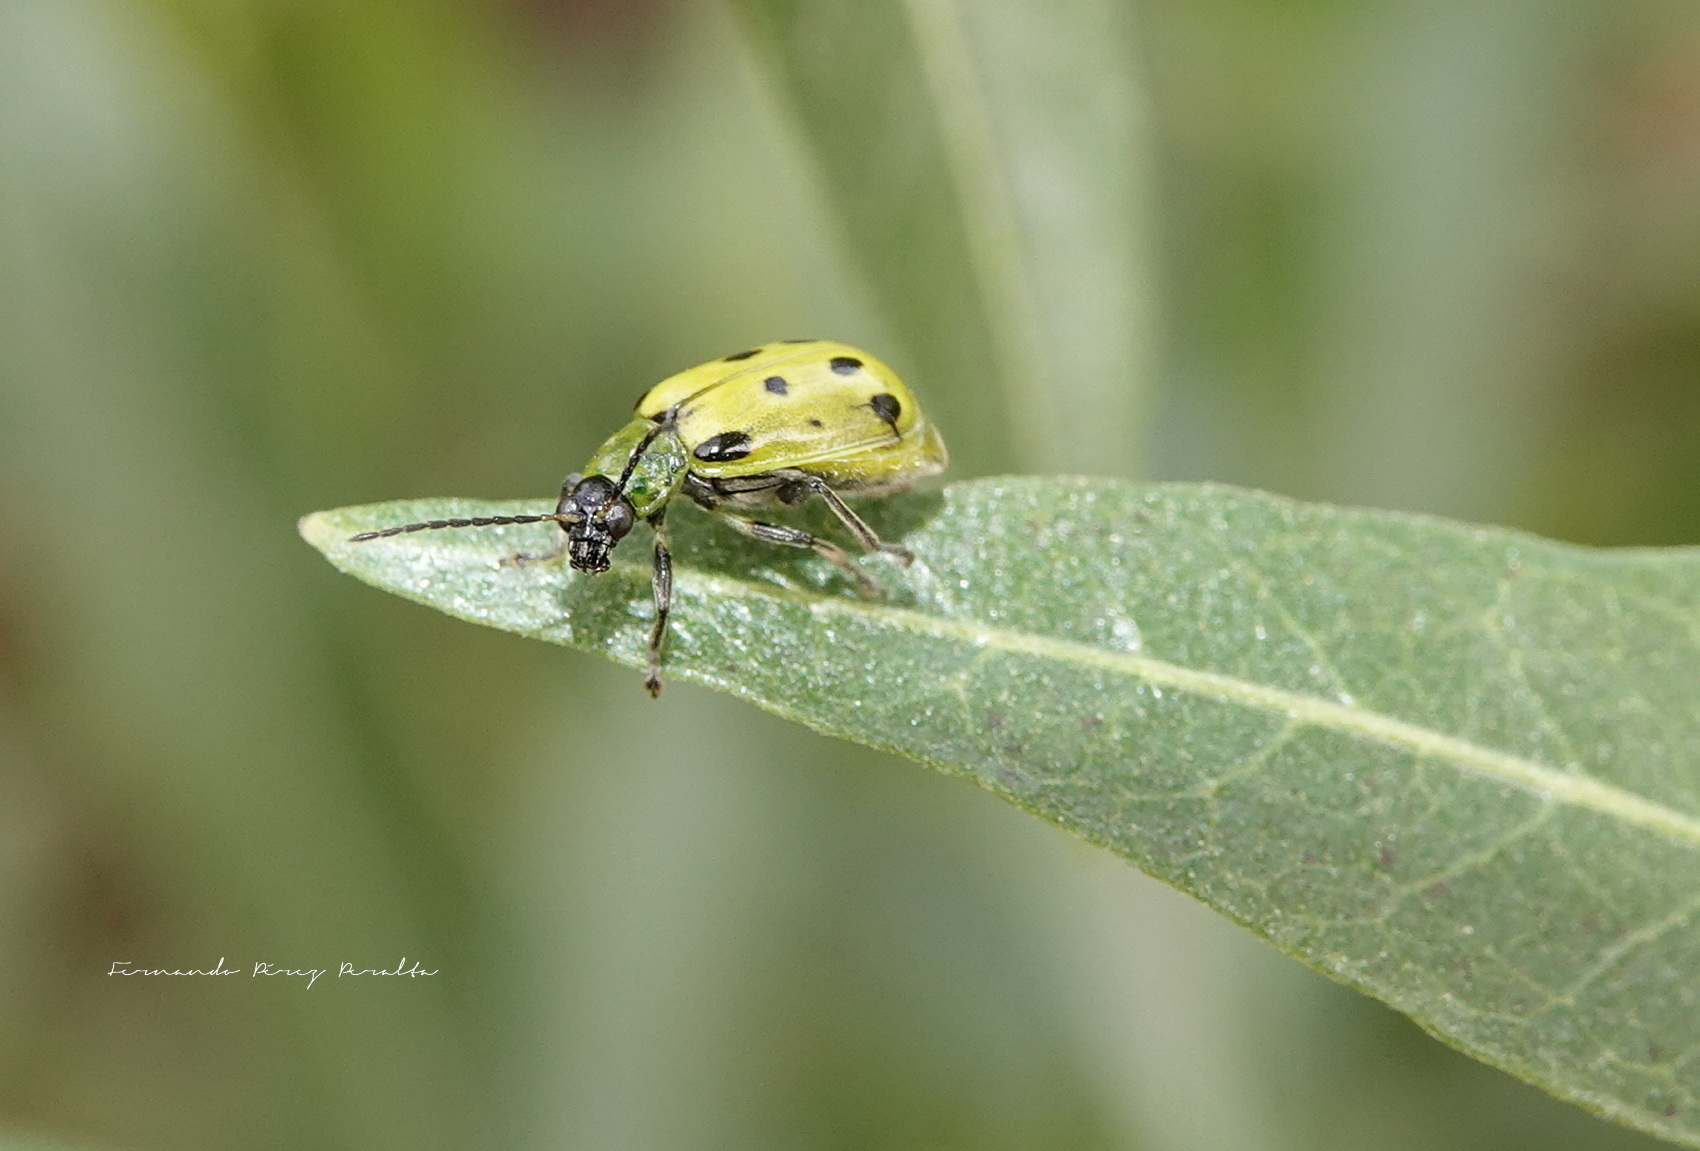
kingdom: Animalia
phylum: Arthropoda
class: Insecta
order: Coleoptera
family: Chrysomelidae
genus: Diabrotica
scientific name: Diabrotica undecimpunctata
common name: Spotted cucumber beetle
